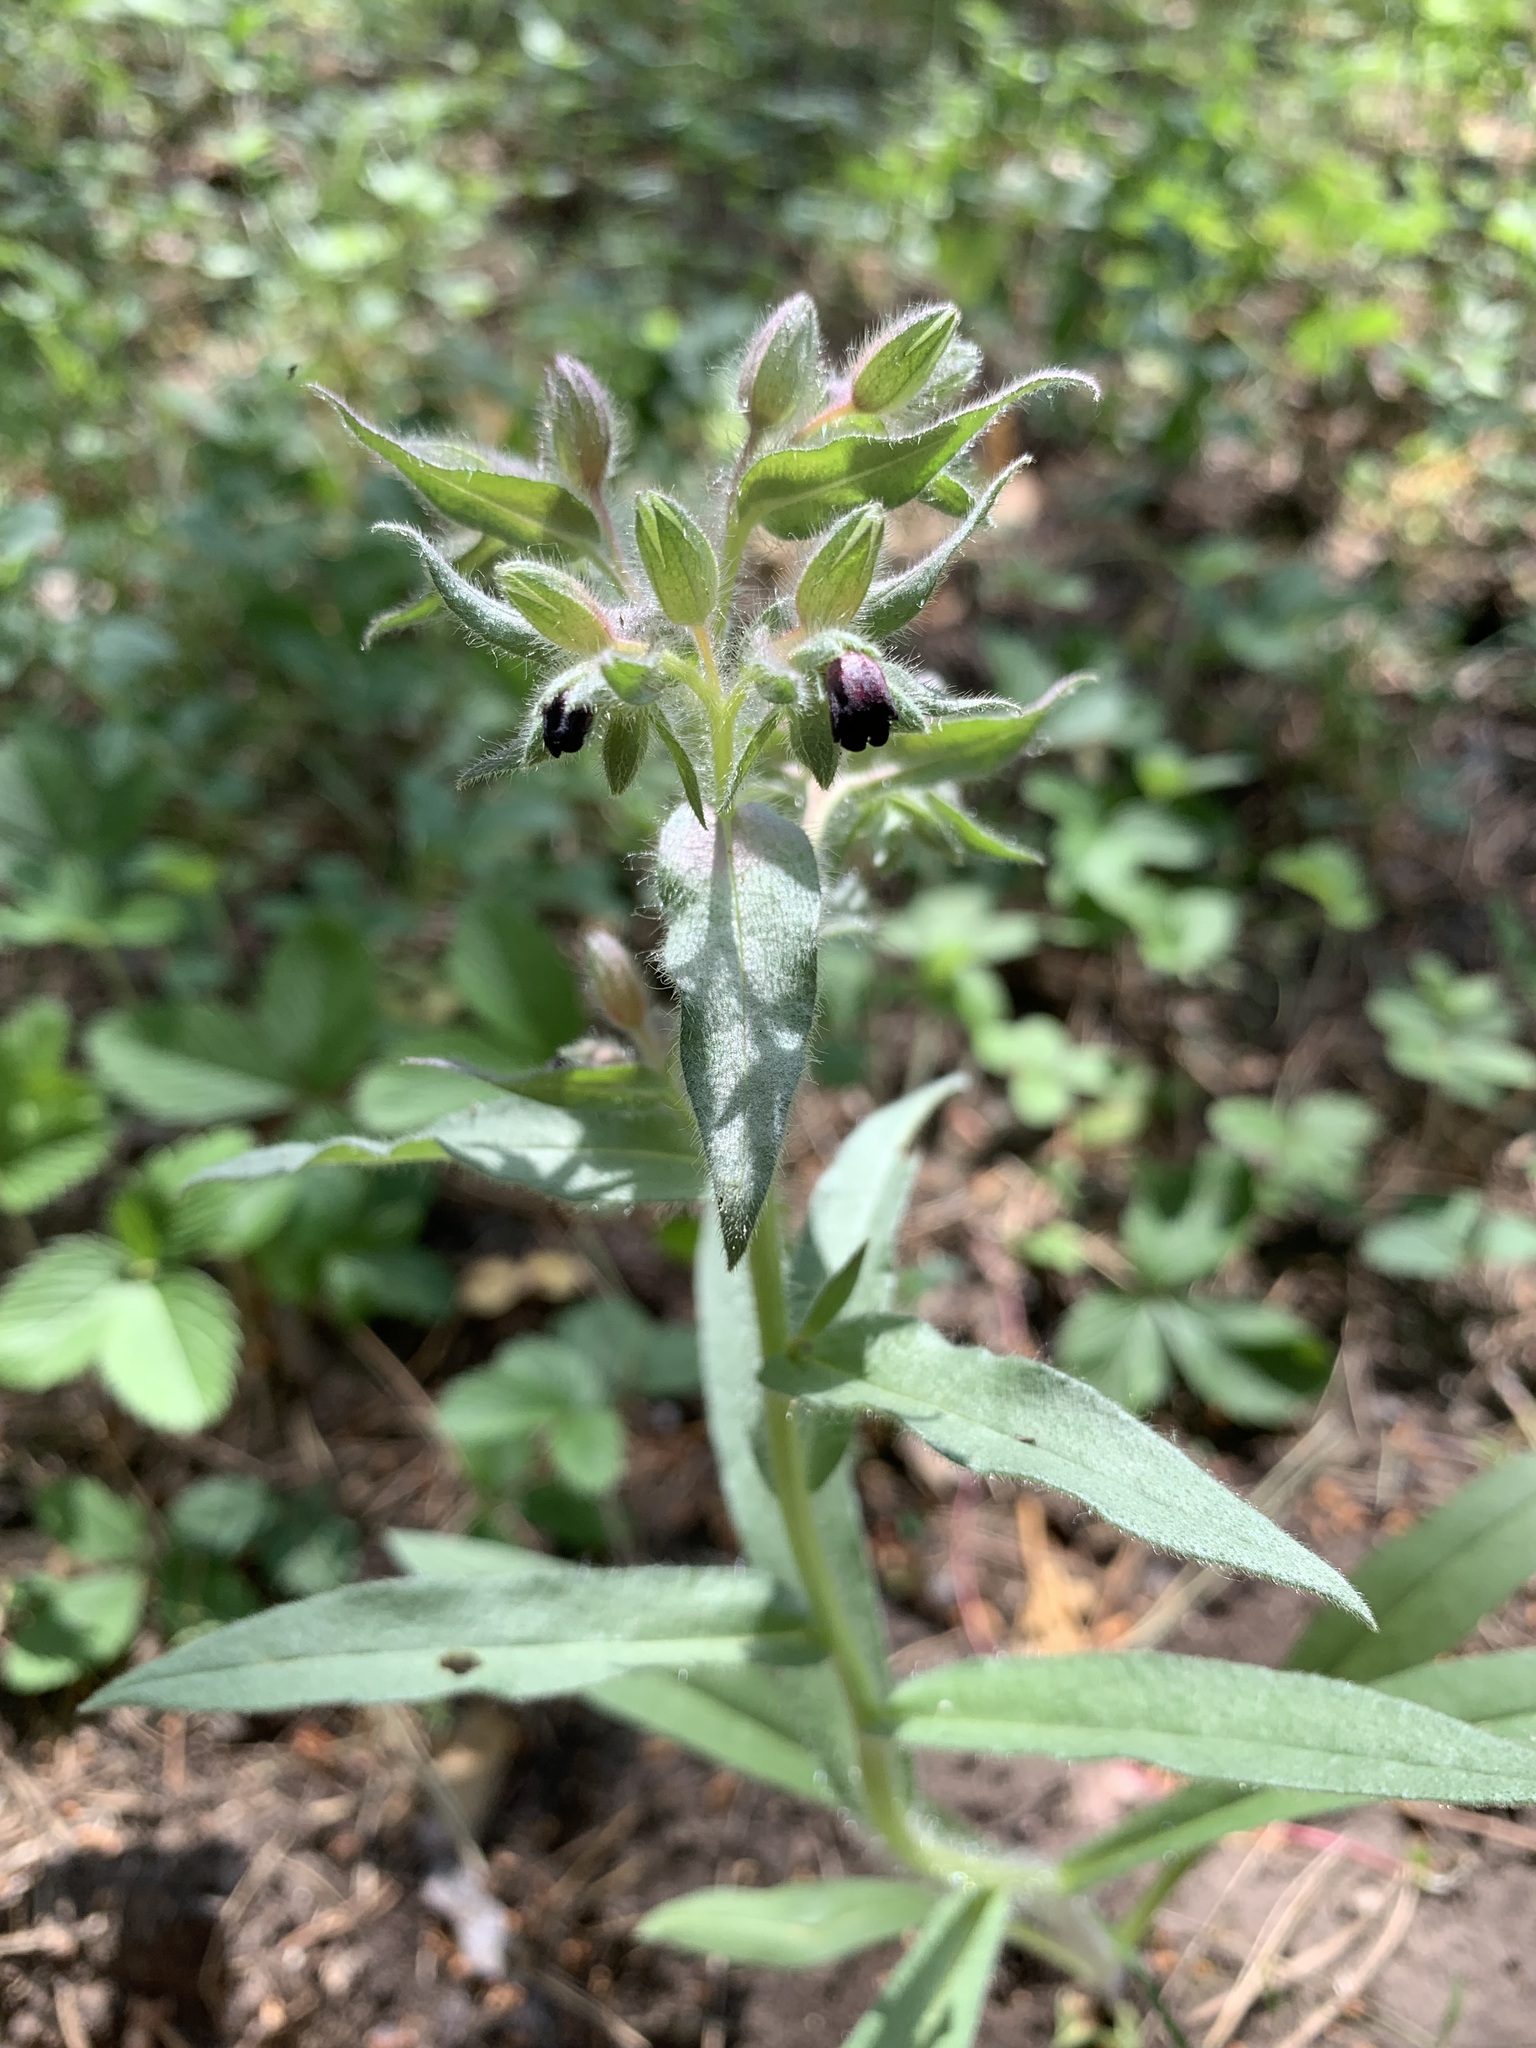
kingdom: Plantae
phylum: Tracheophyta
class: Magnoliopsida
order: Boraginales
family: Boraginaceae
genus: Nonea
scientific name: Nonea pulla
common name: Brown nonea
